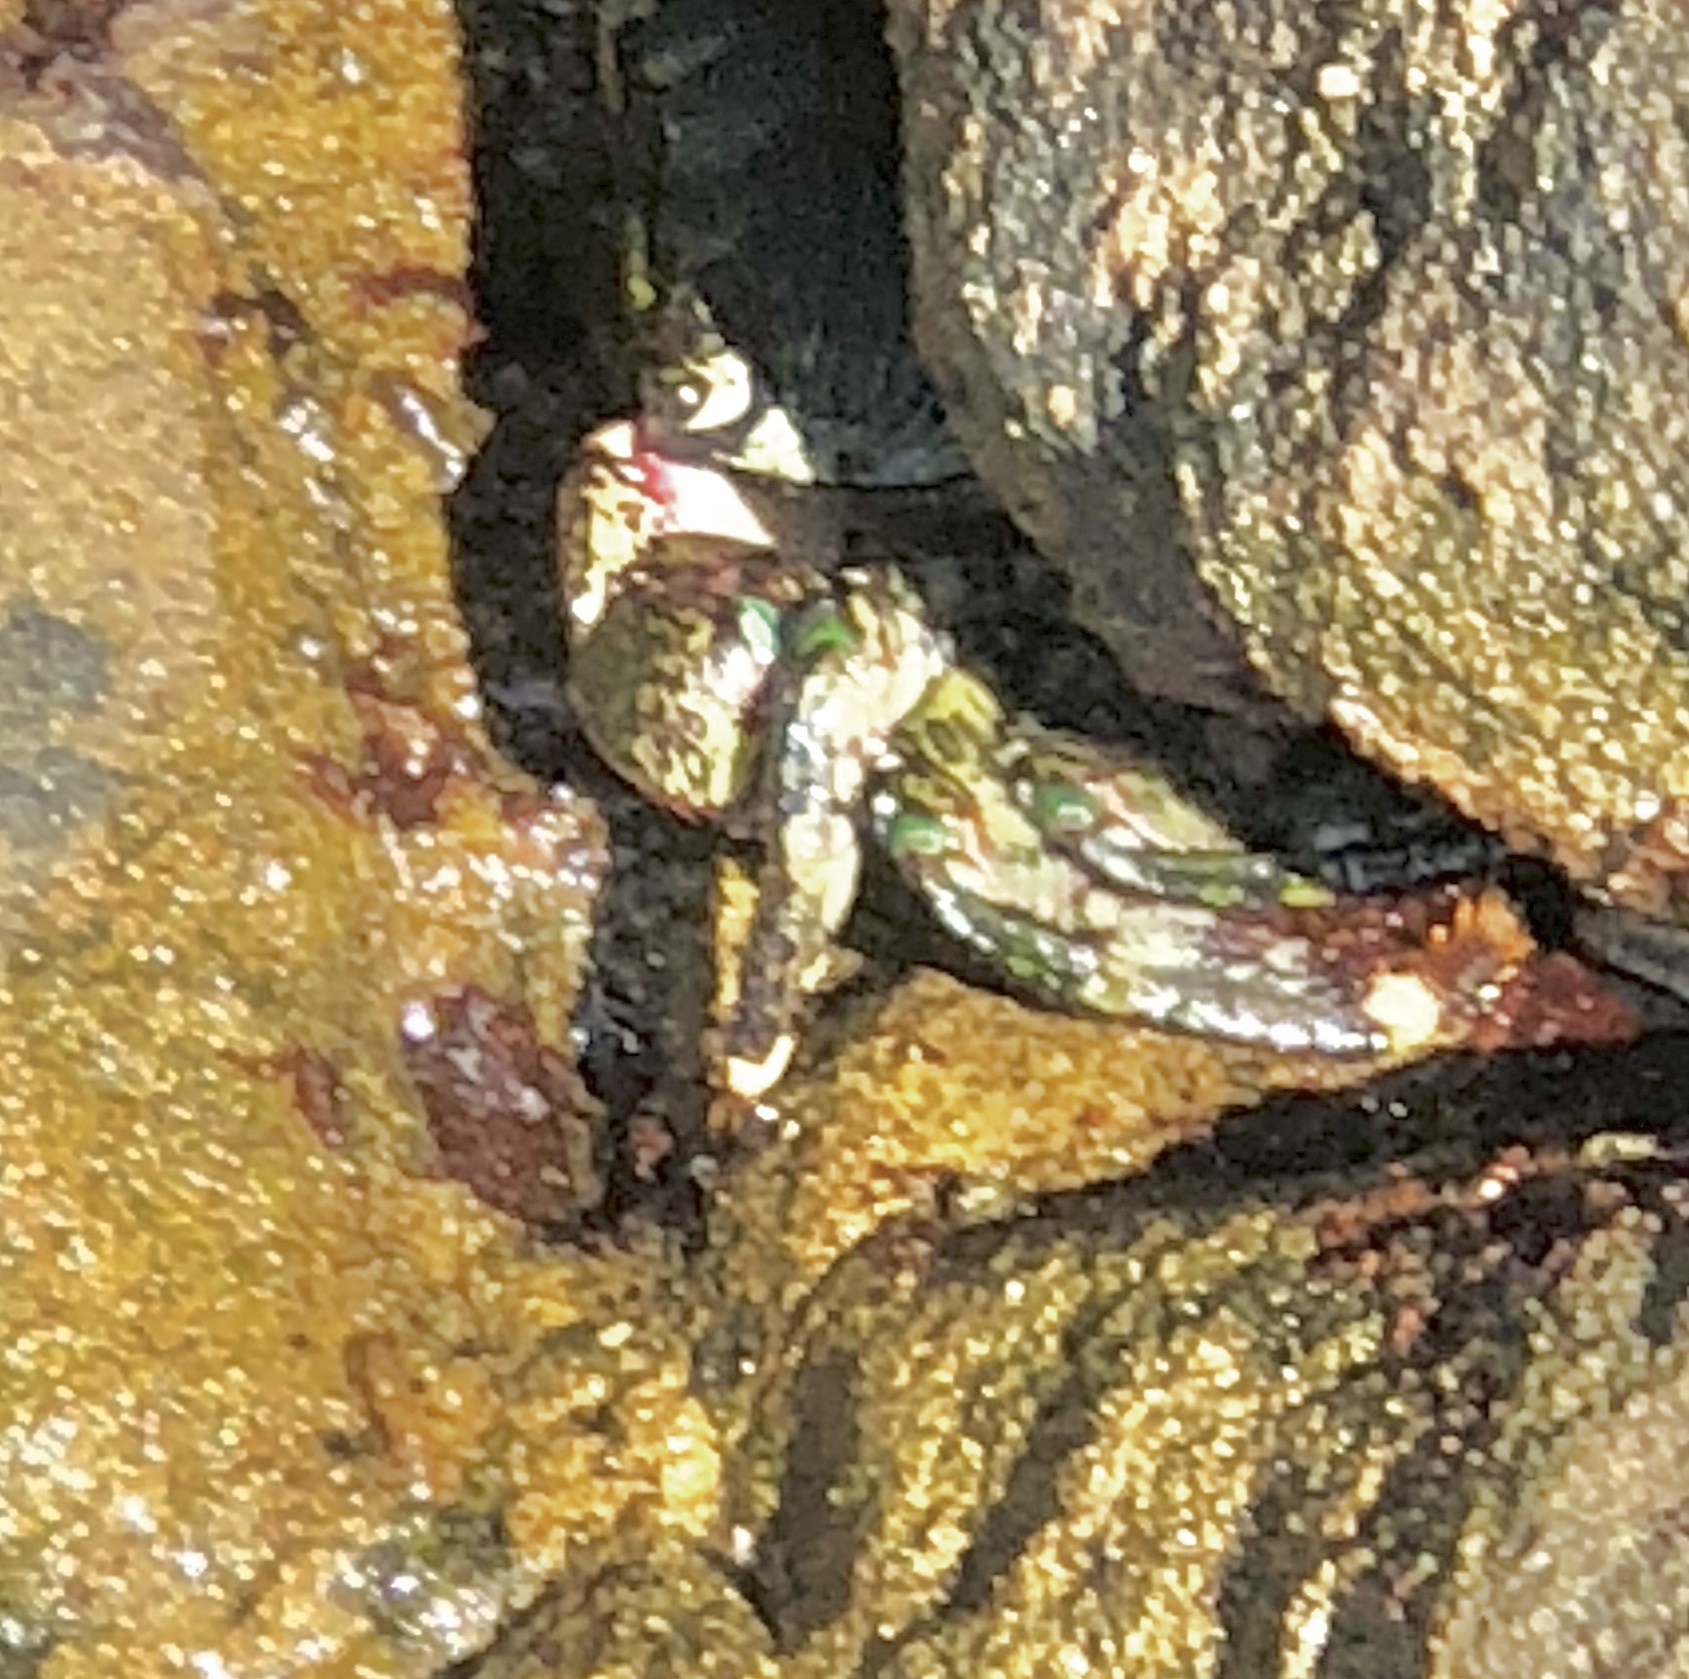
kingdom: Animalia
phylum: Arthropoda
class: Malacostraca
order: Decapoda
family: Grapsidae
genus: Pachygrapsus
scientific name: Pachygrapsus crassipes
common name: Striped shore crab
